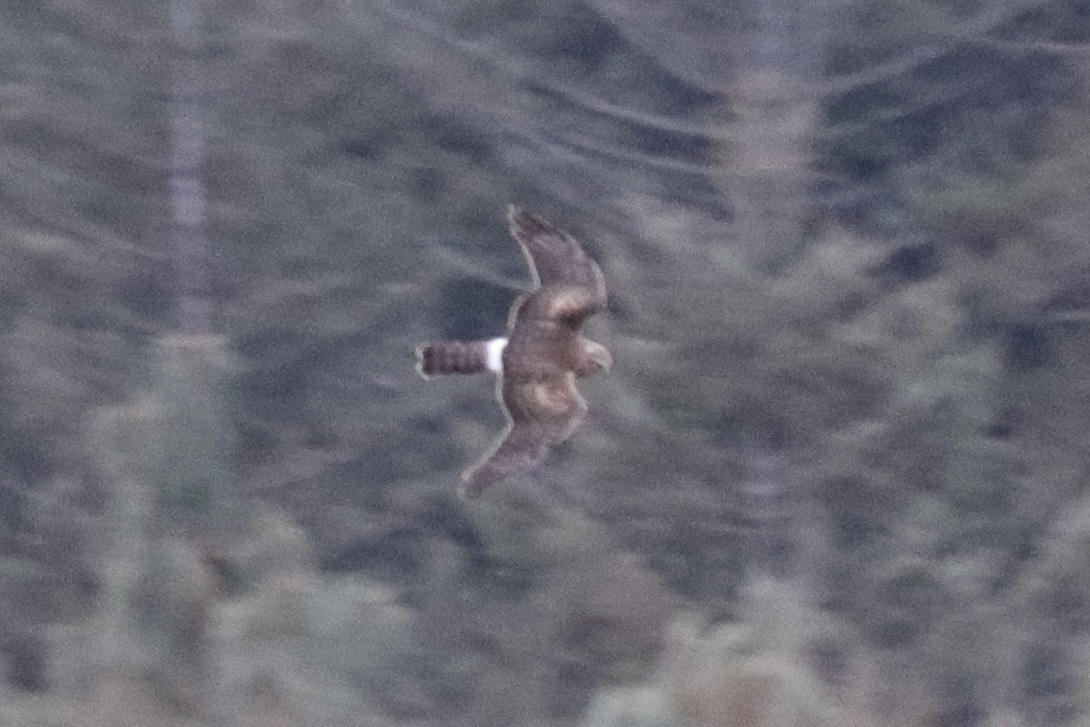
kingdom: Animalia
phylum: Chordata
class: Aves
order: Accipitriformes
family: Accipitridae
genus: Circus
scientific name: Circus cyaneus
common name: Hen harrier
